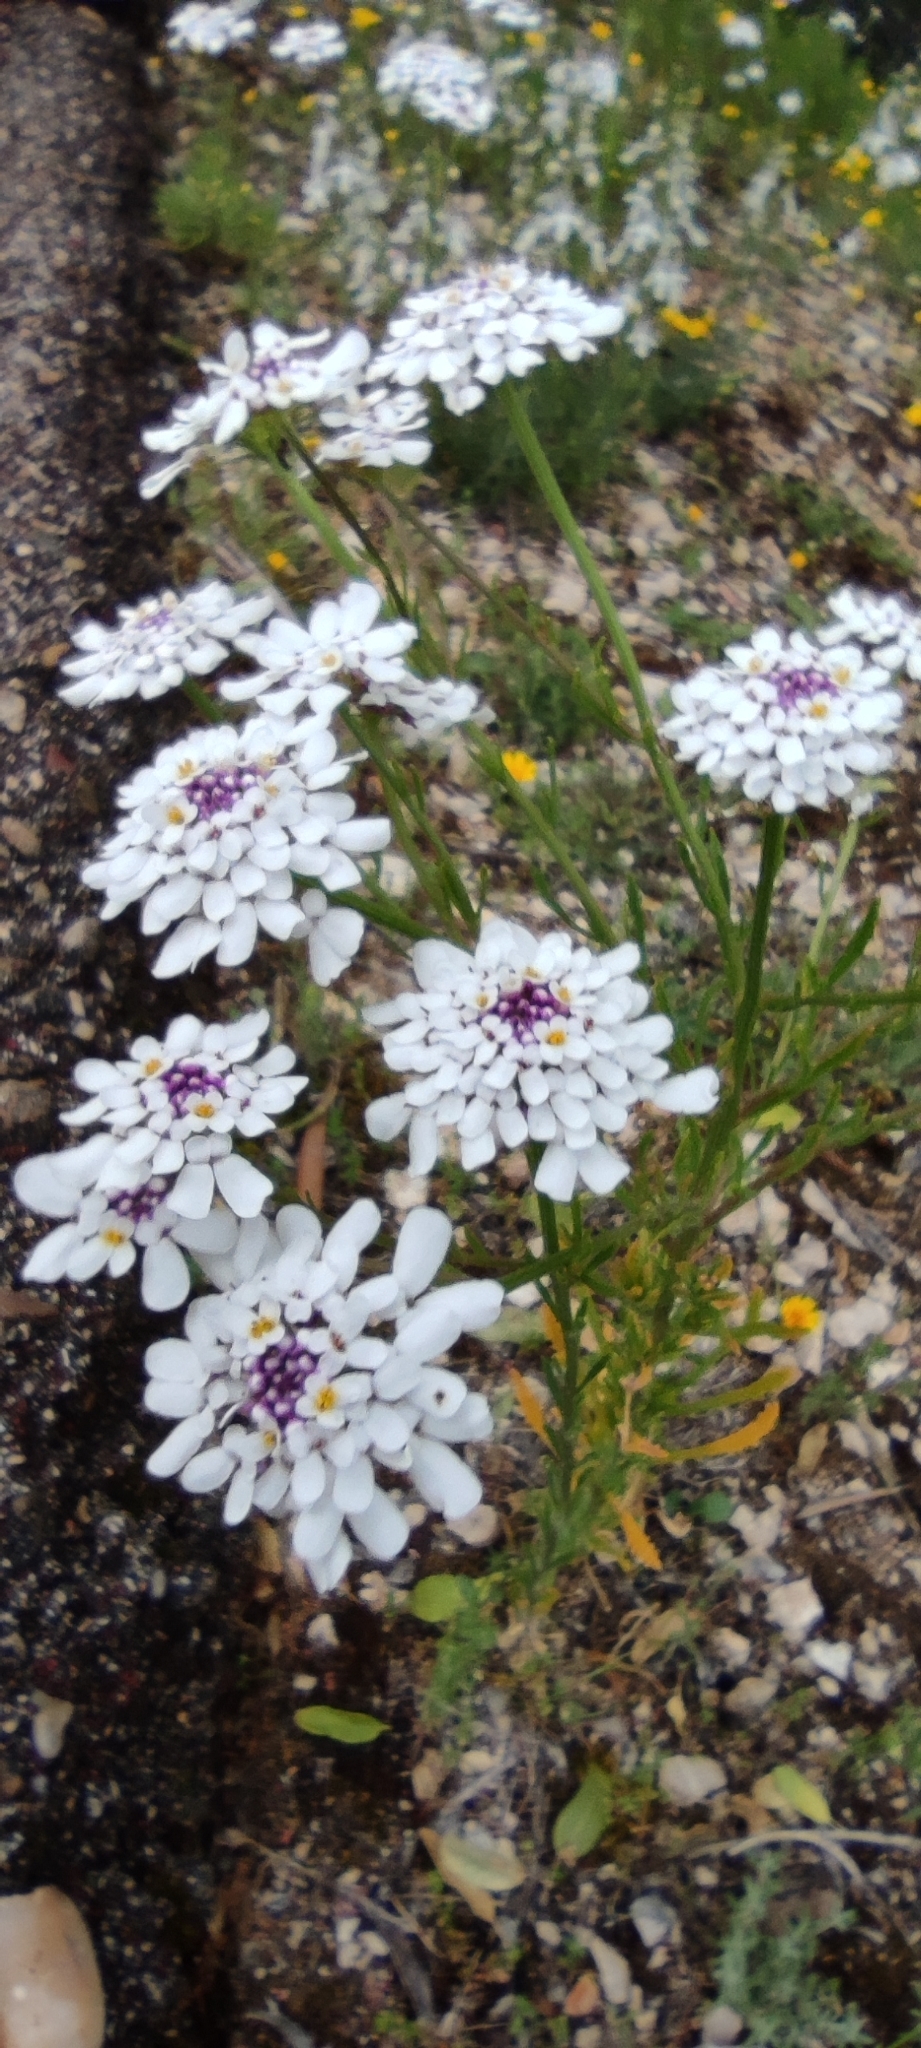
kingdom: Plantae
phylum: Tracheophyta
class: Magnoliopsida
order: Brassicales
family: Brassicaceae
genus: Iberis
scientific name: Iberis pectinata
